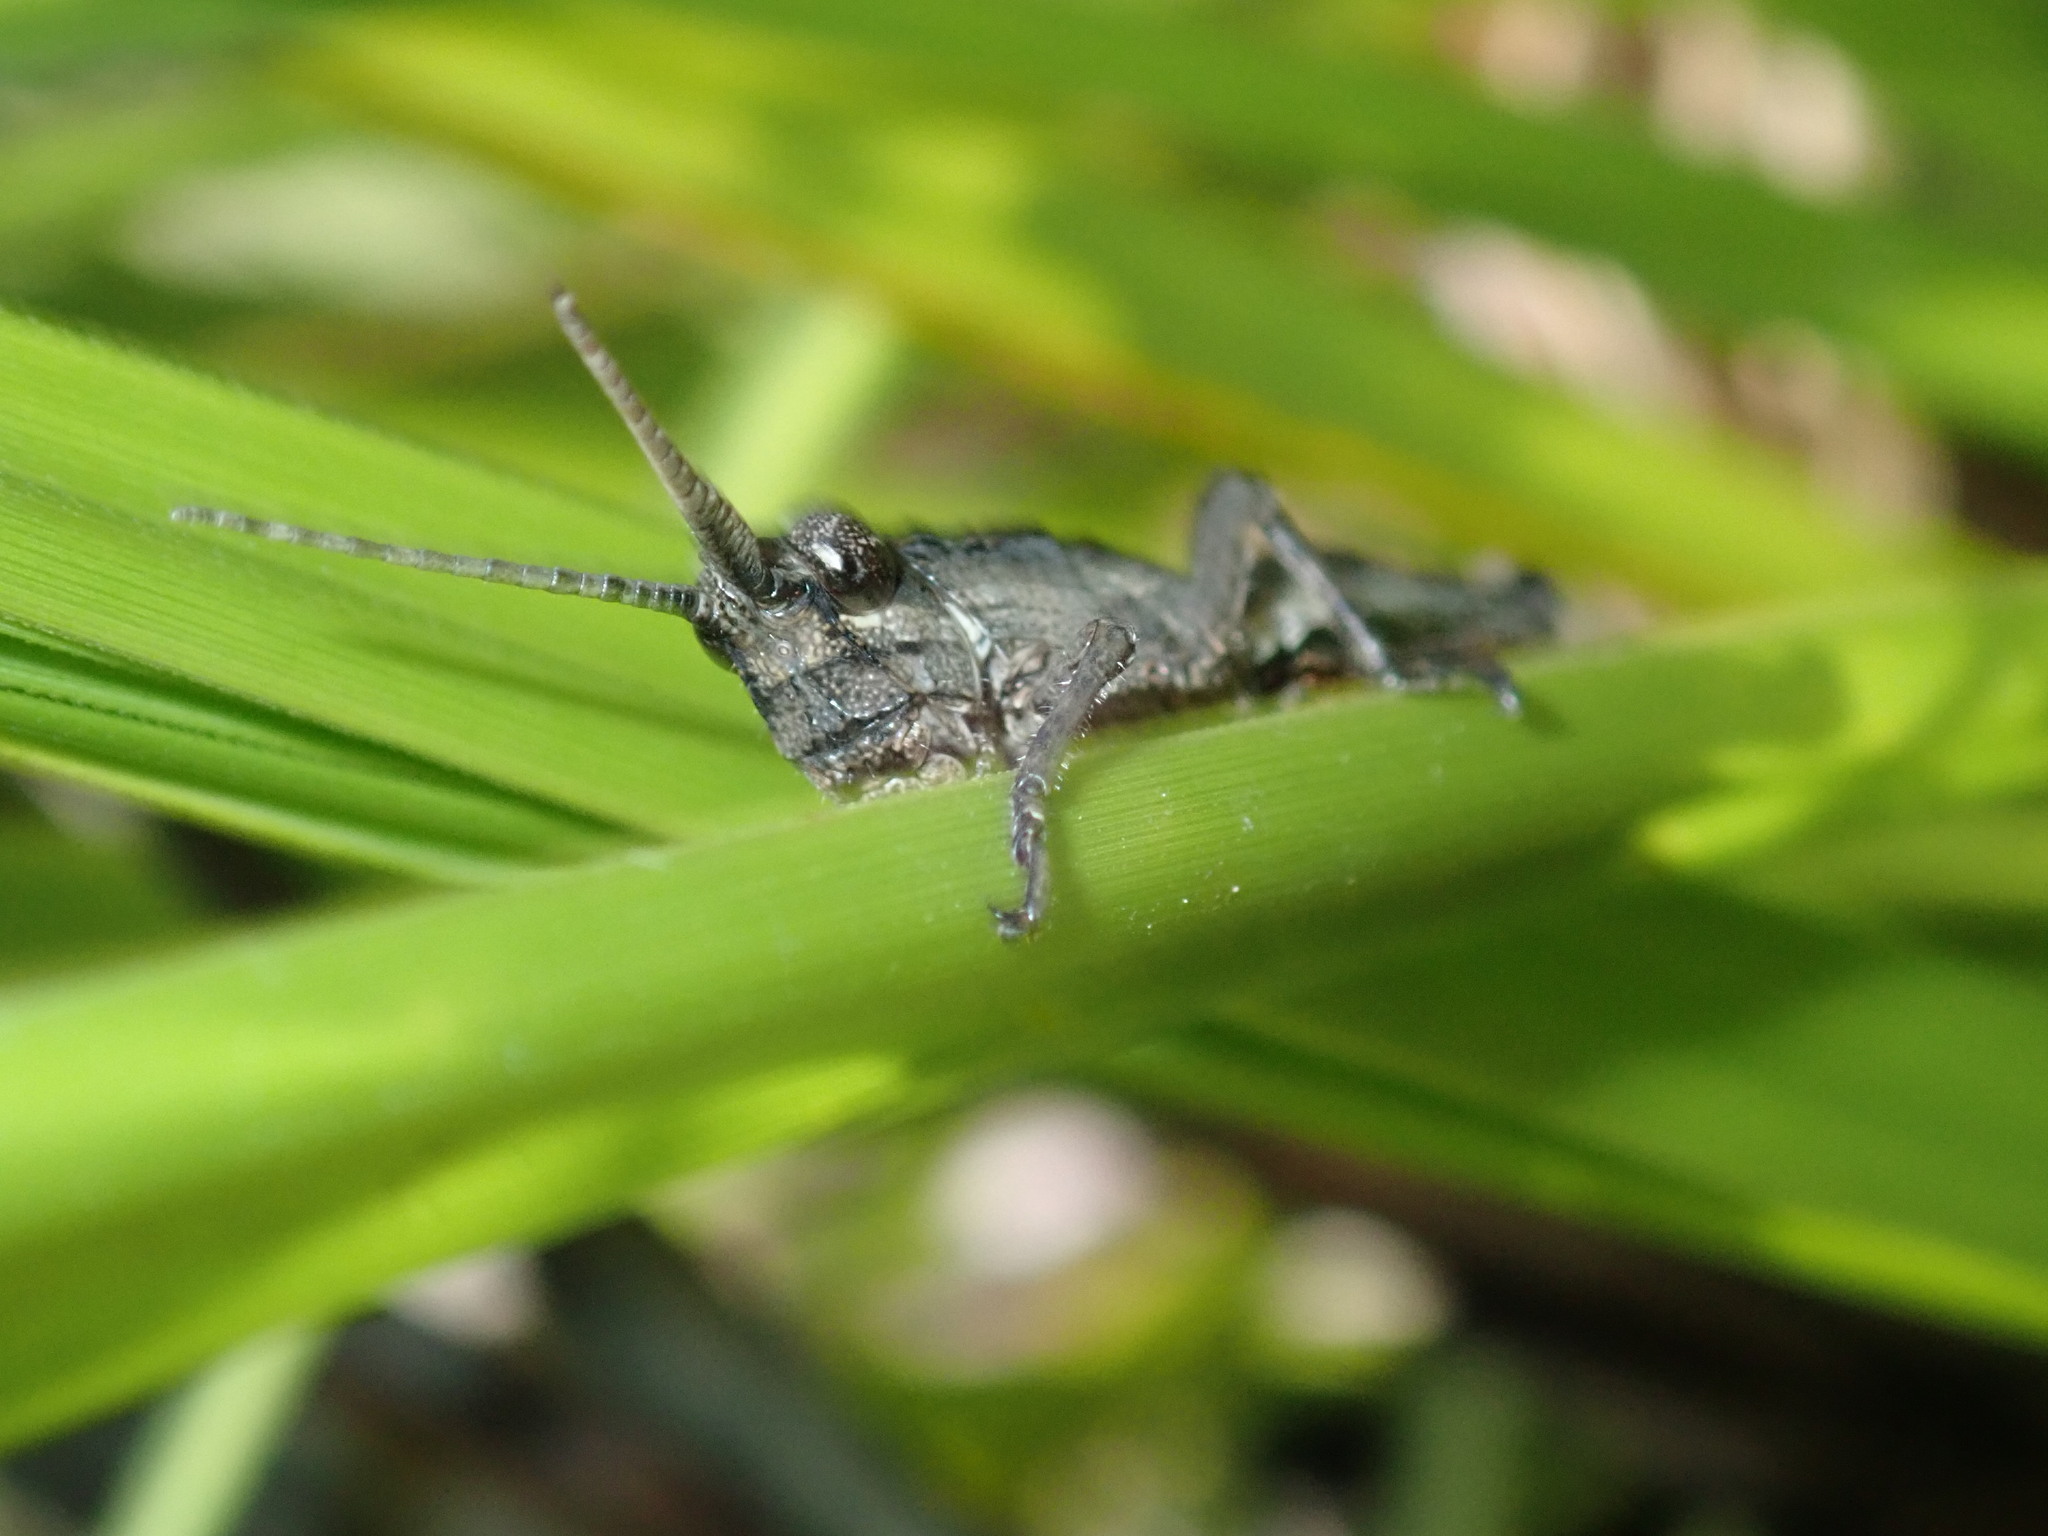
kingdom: Animalia
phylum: Arthropoda
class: Insecta
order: Orthoptera
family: Acrididae
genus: Coryphistes
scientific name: Coryphistes ruricola
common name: Bark-mimicking grasshopper
